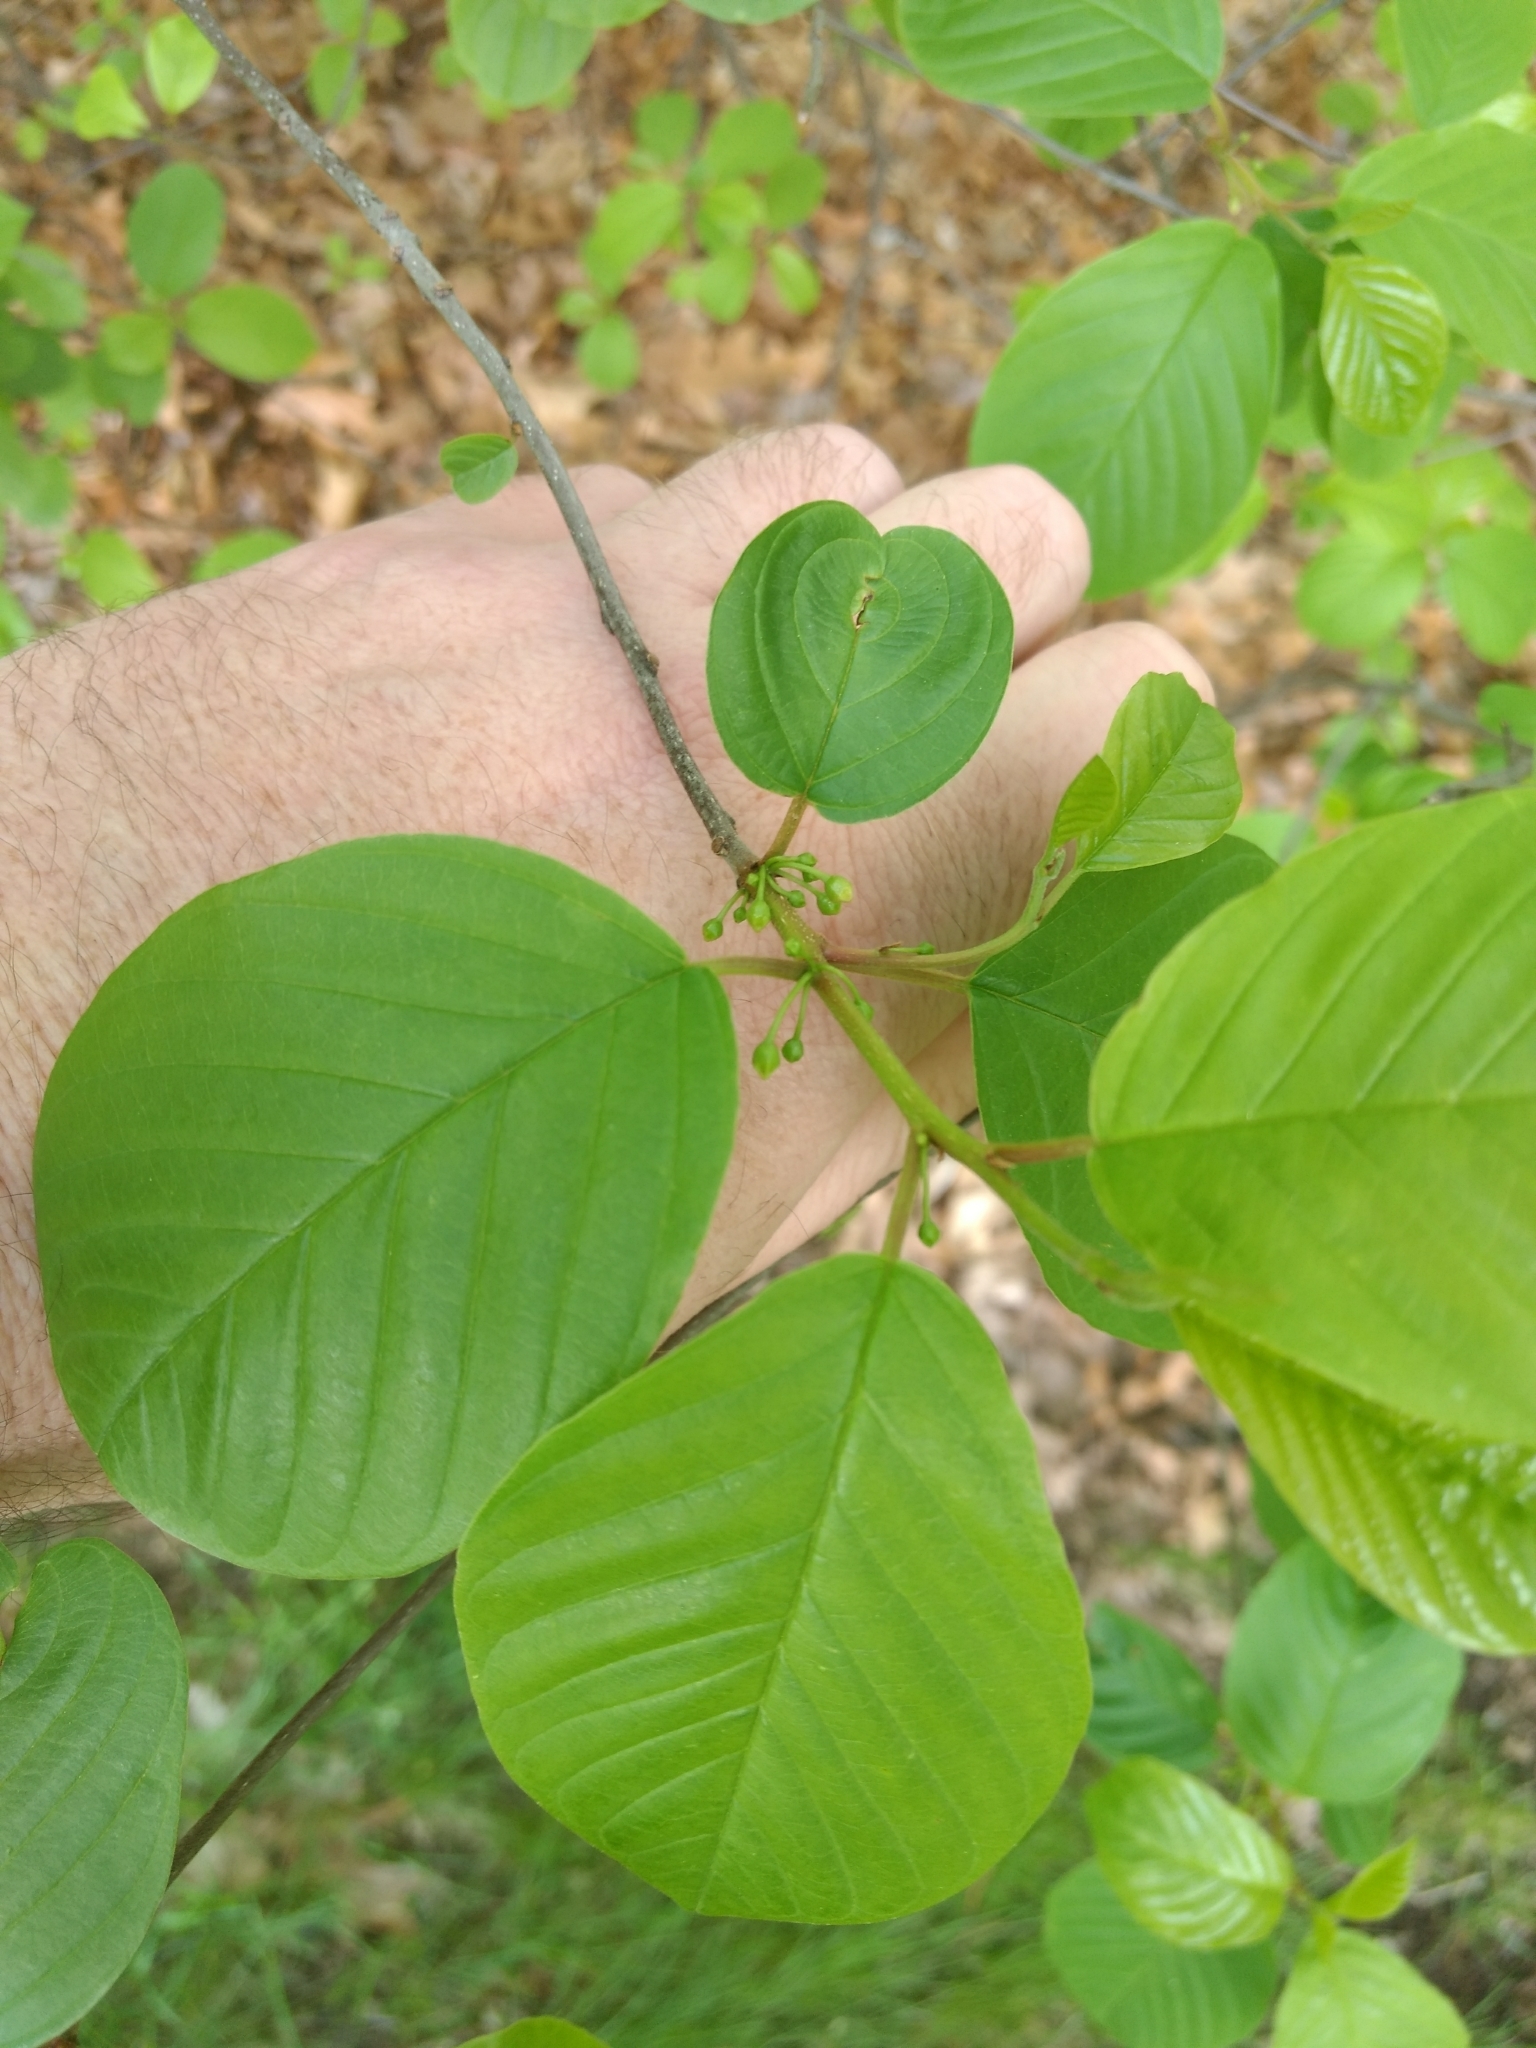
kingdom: Plantae
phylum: Tracheophyta
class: Magnoliopsida
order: Rosales
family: Rhamnaceae
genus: Frangula
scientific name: Frangula alnus
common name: Alder buckthorn
